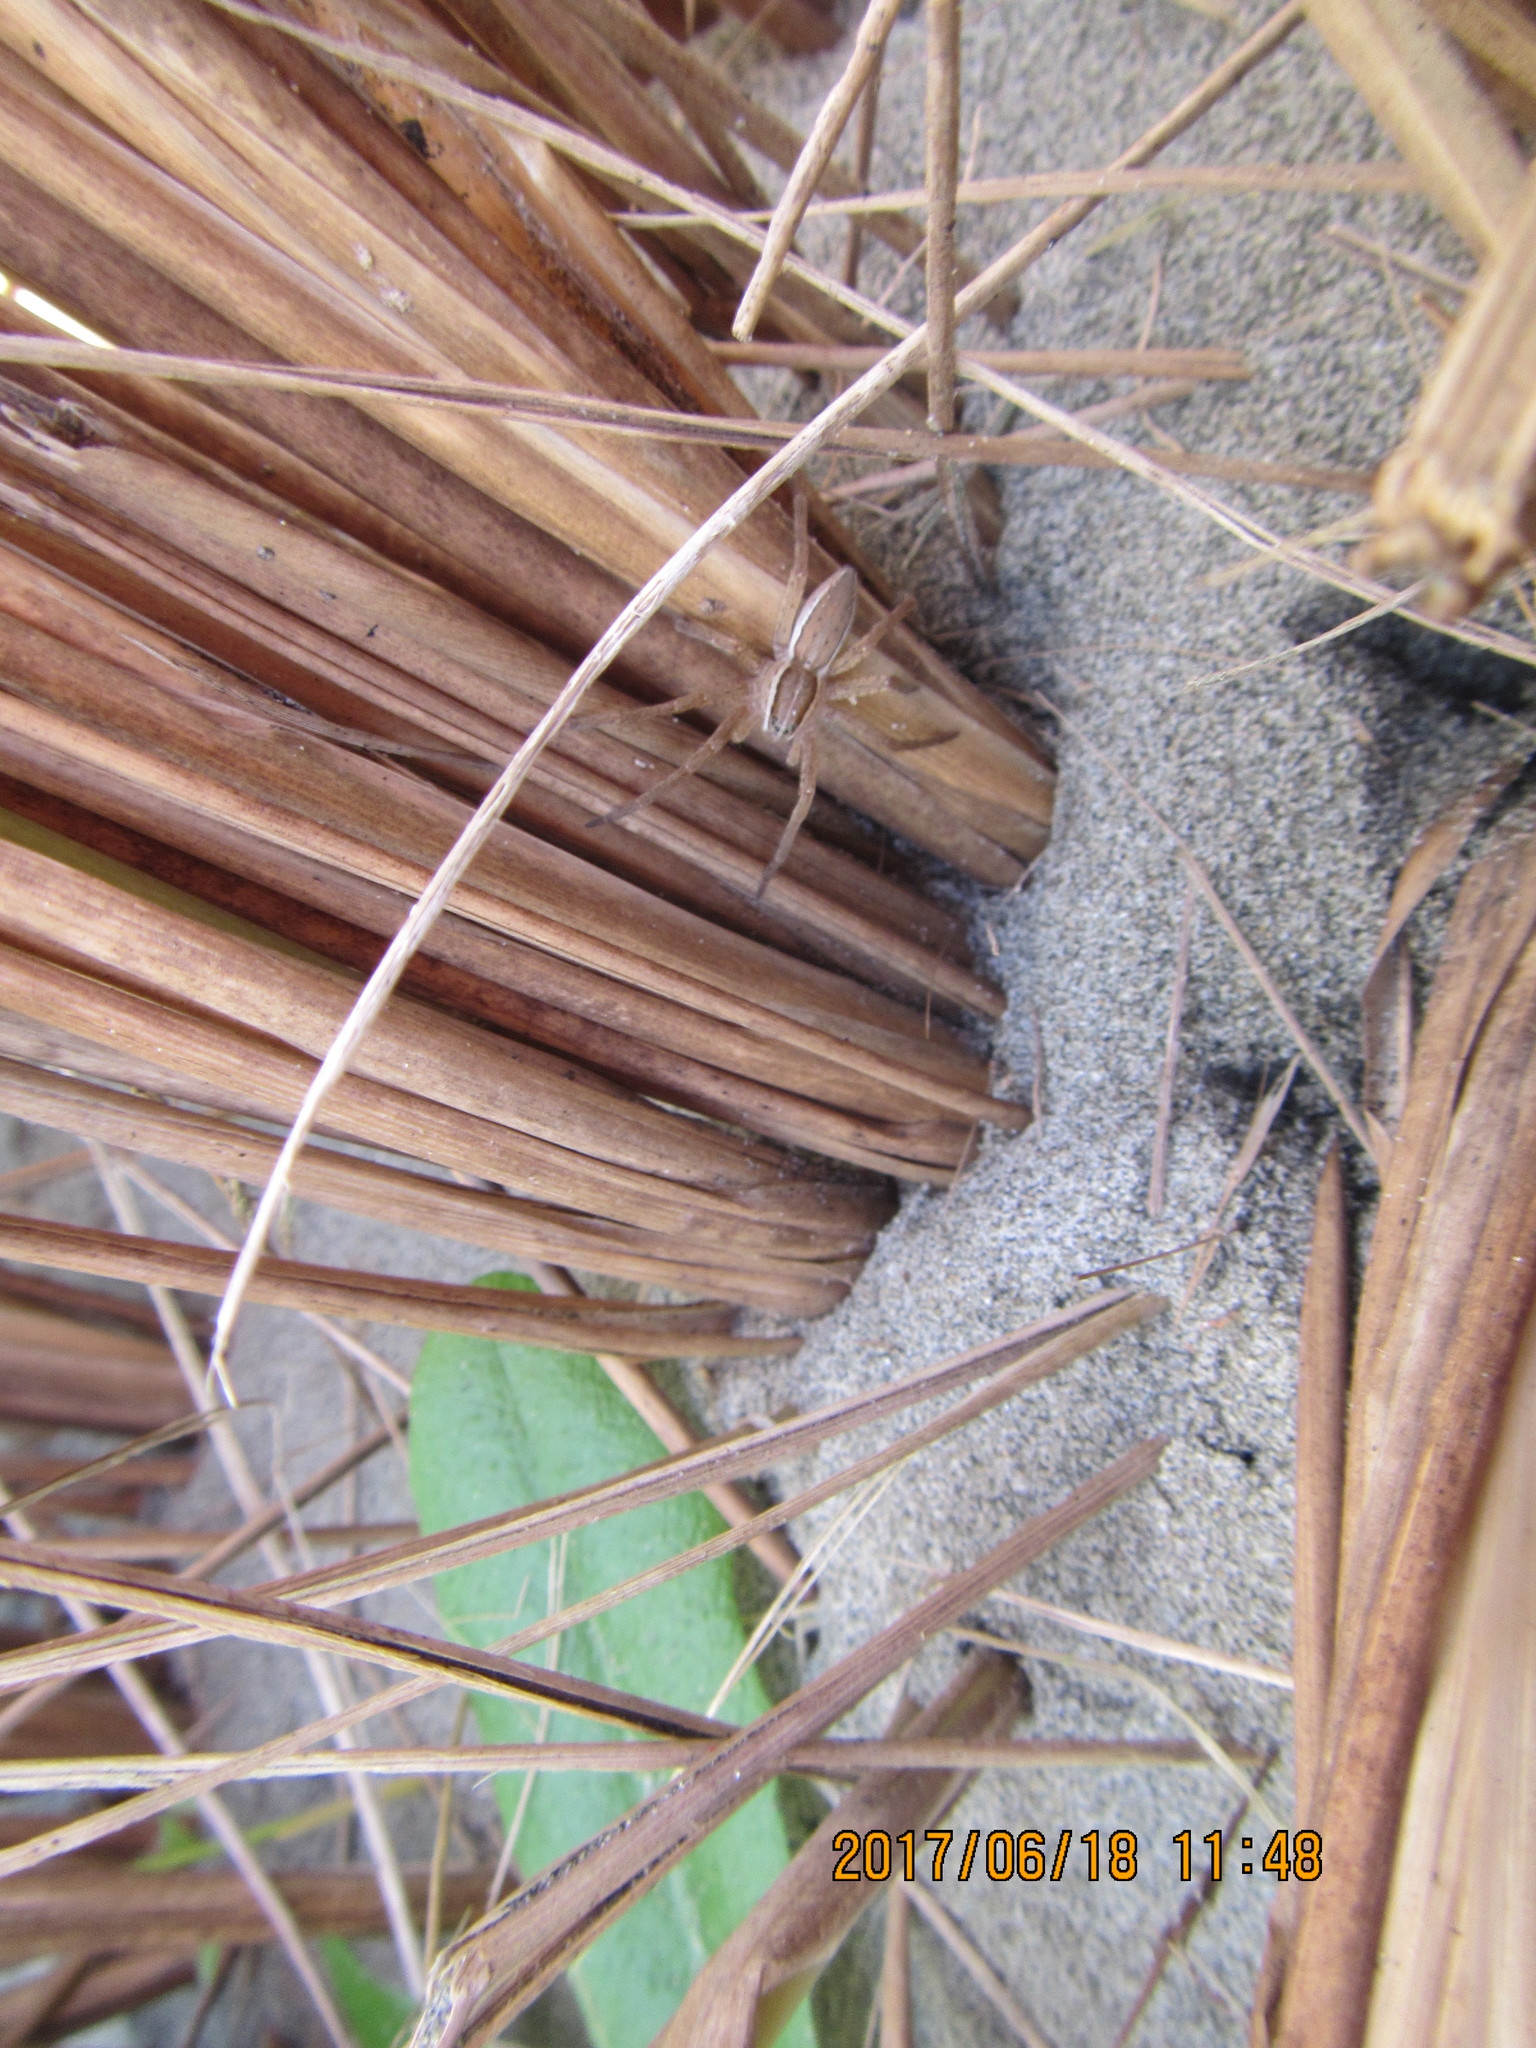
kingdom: Animalia
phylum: Arthropoda
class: Arachnida
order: Araneae
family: Pisauridae
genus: Dolomedes
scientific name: Dolomedes minor
